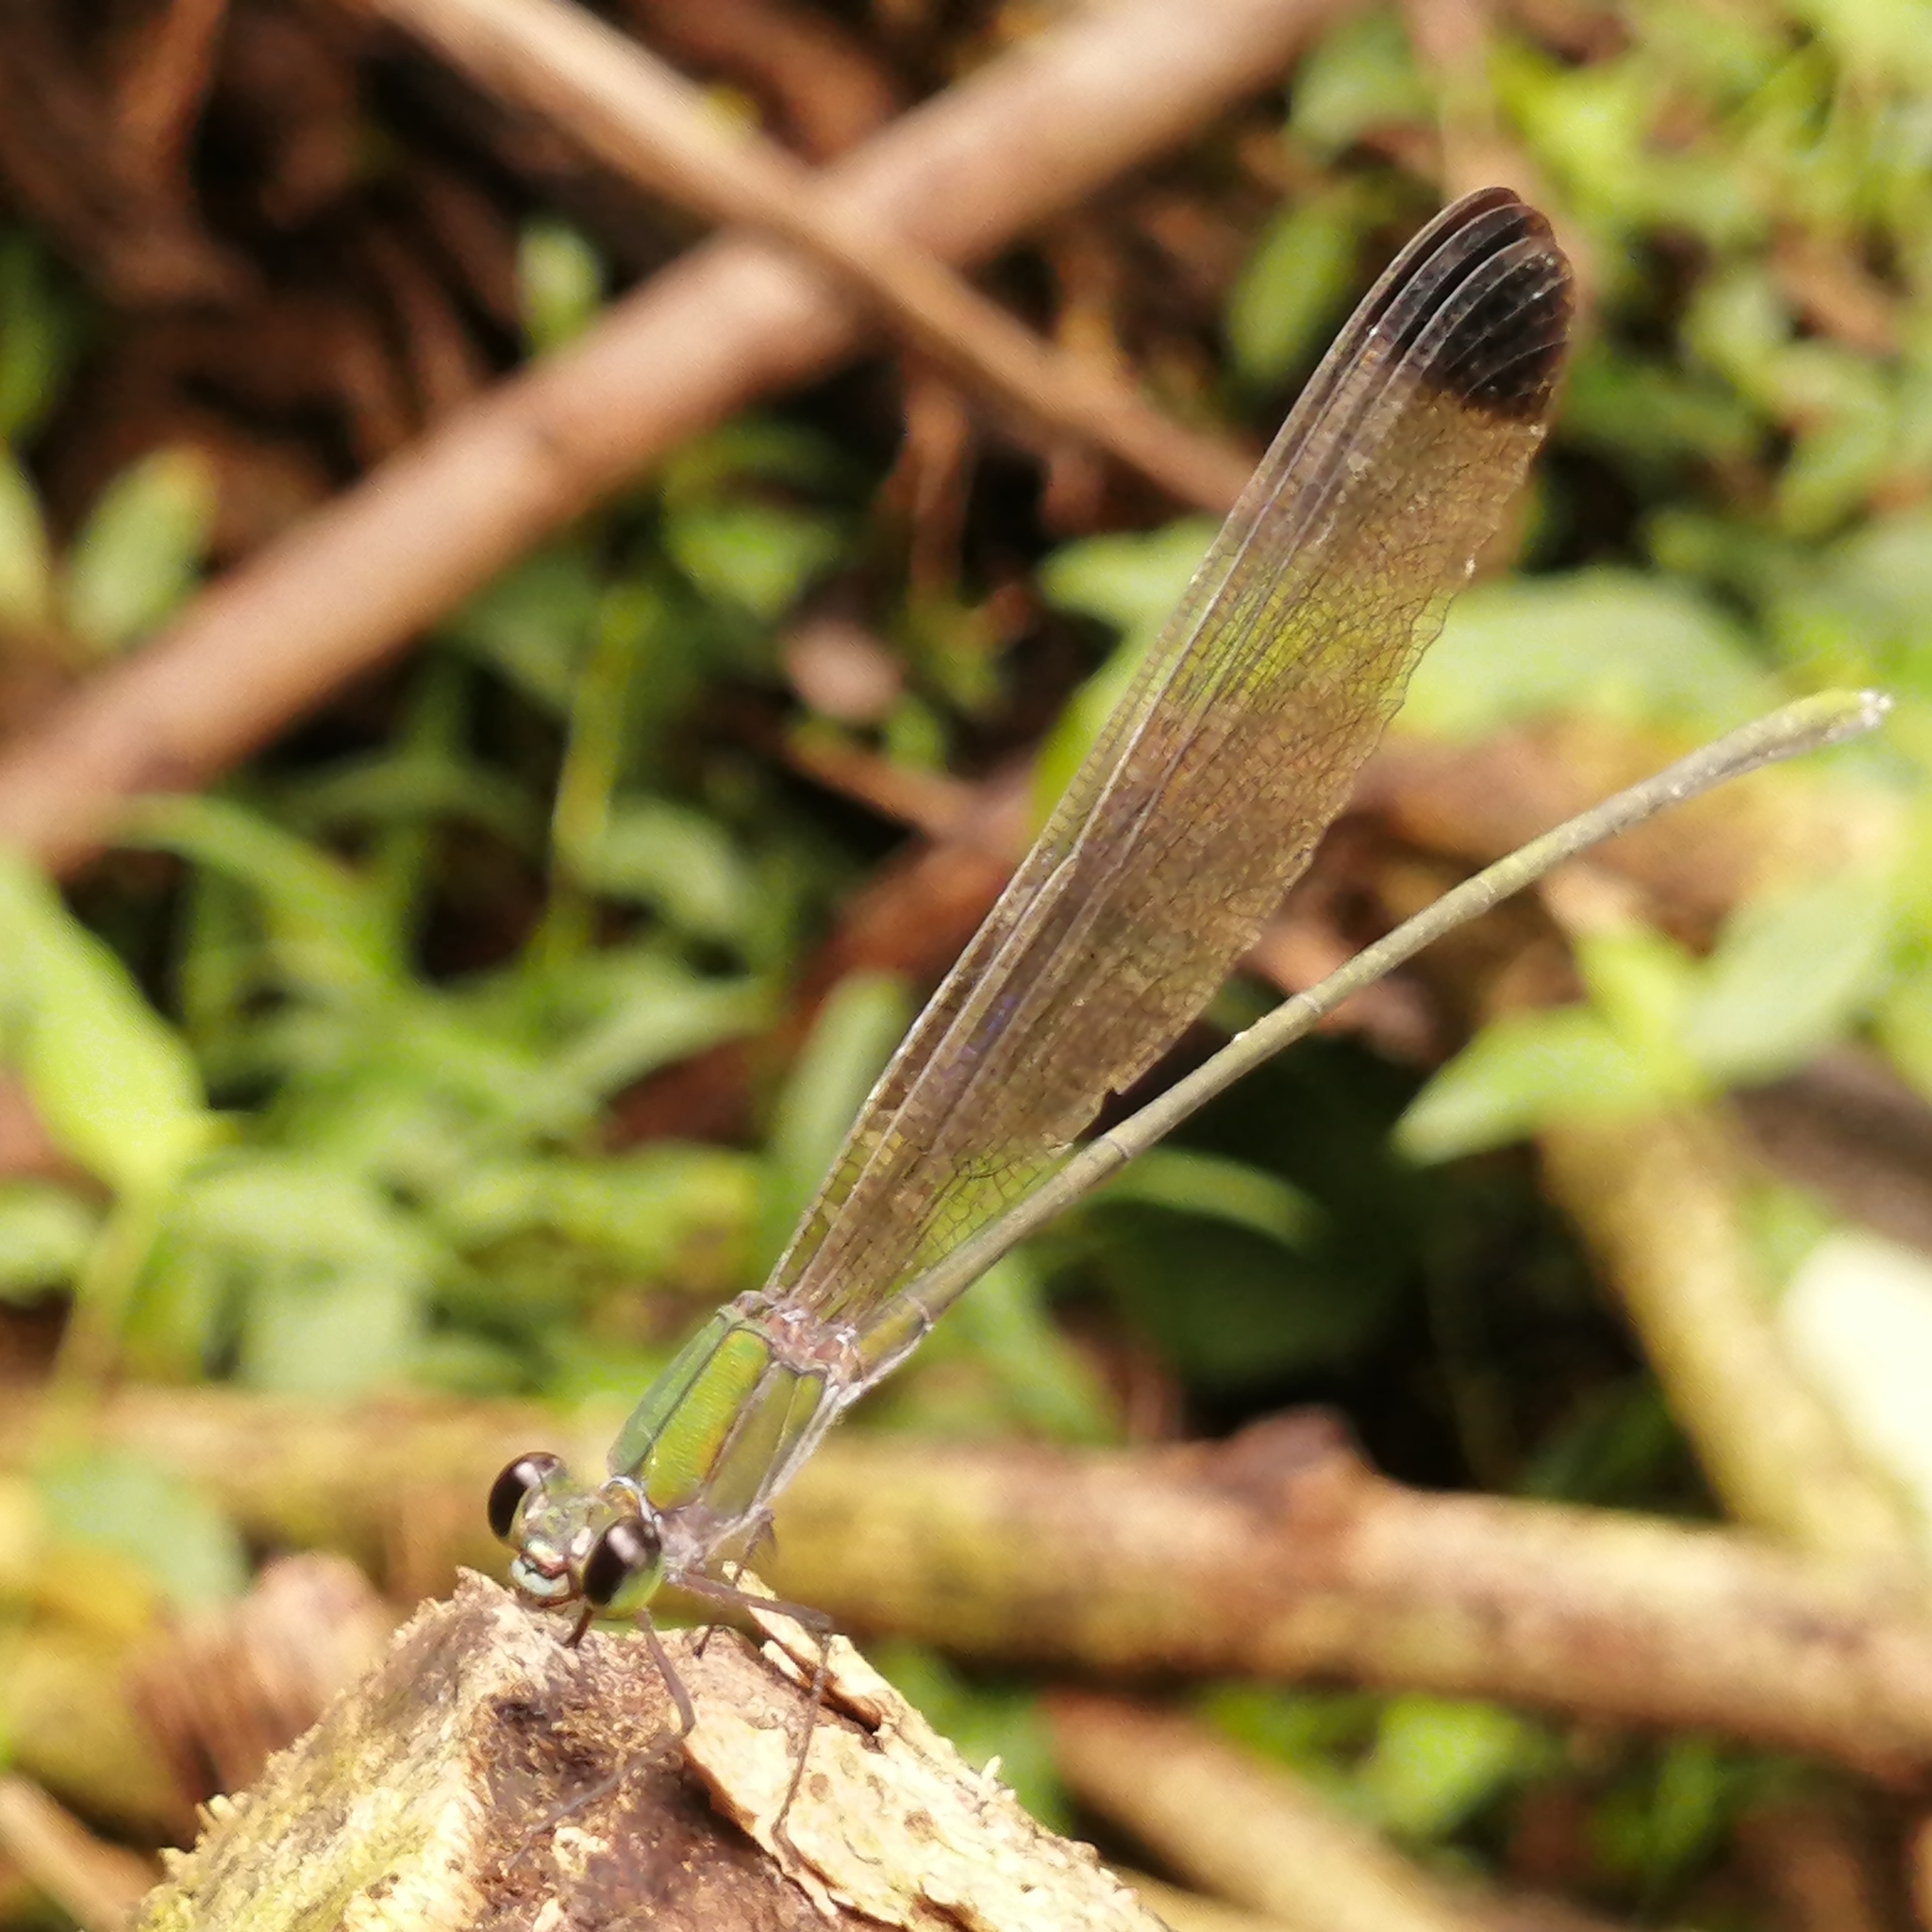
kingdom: Animalia
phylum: Arthropoda
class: Insecta
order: Odonata
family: Calopterygidae
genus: Vestalis
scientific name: Vestalis apicalis
